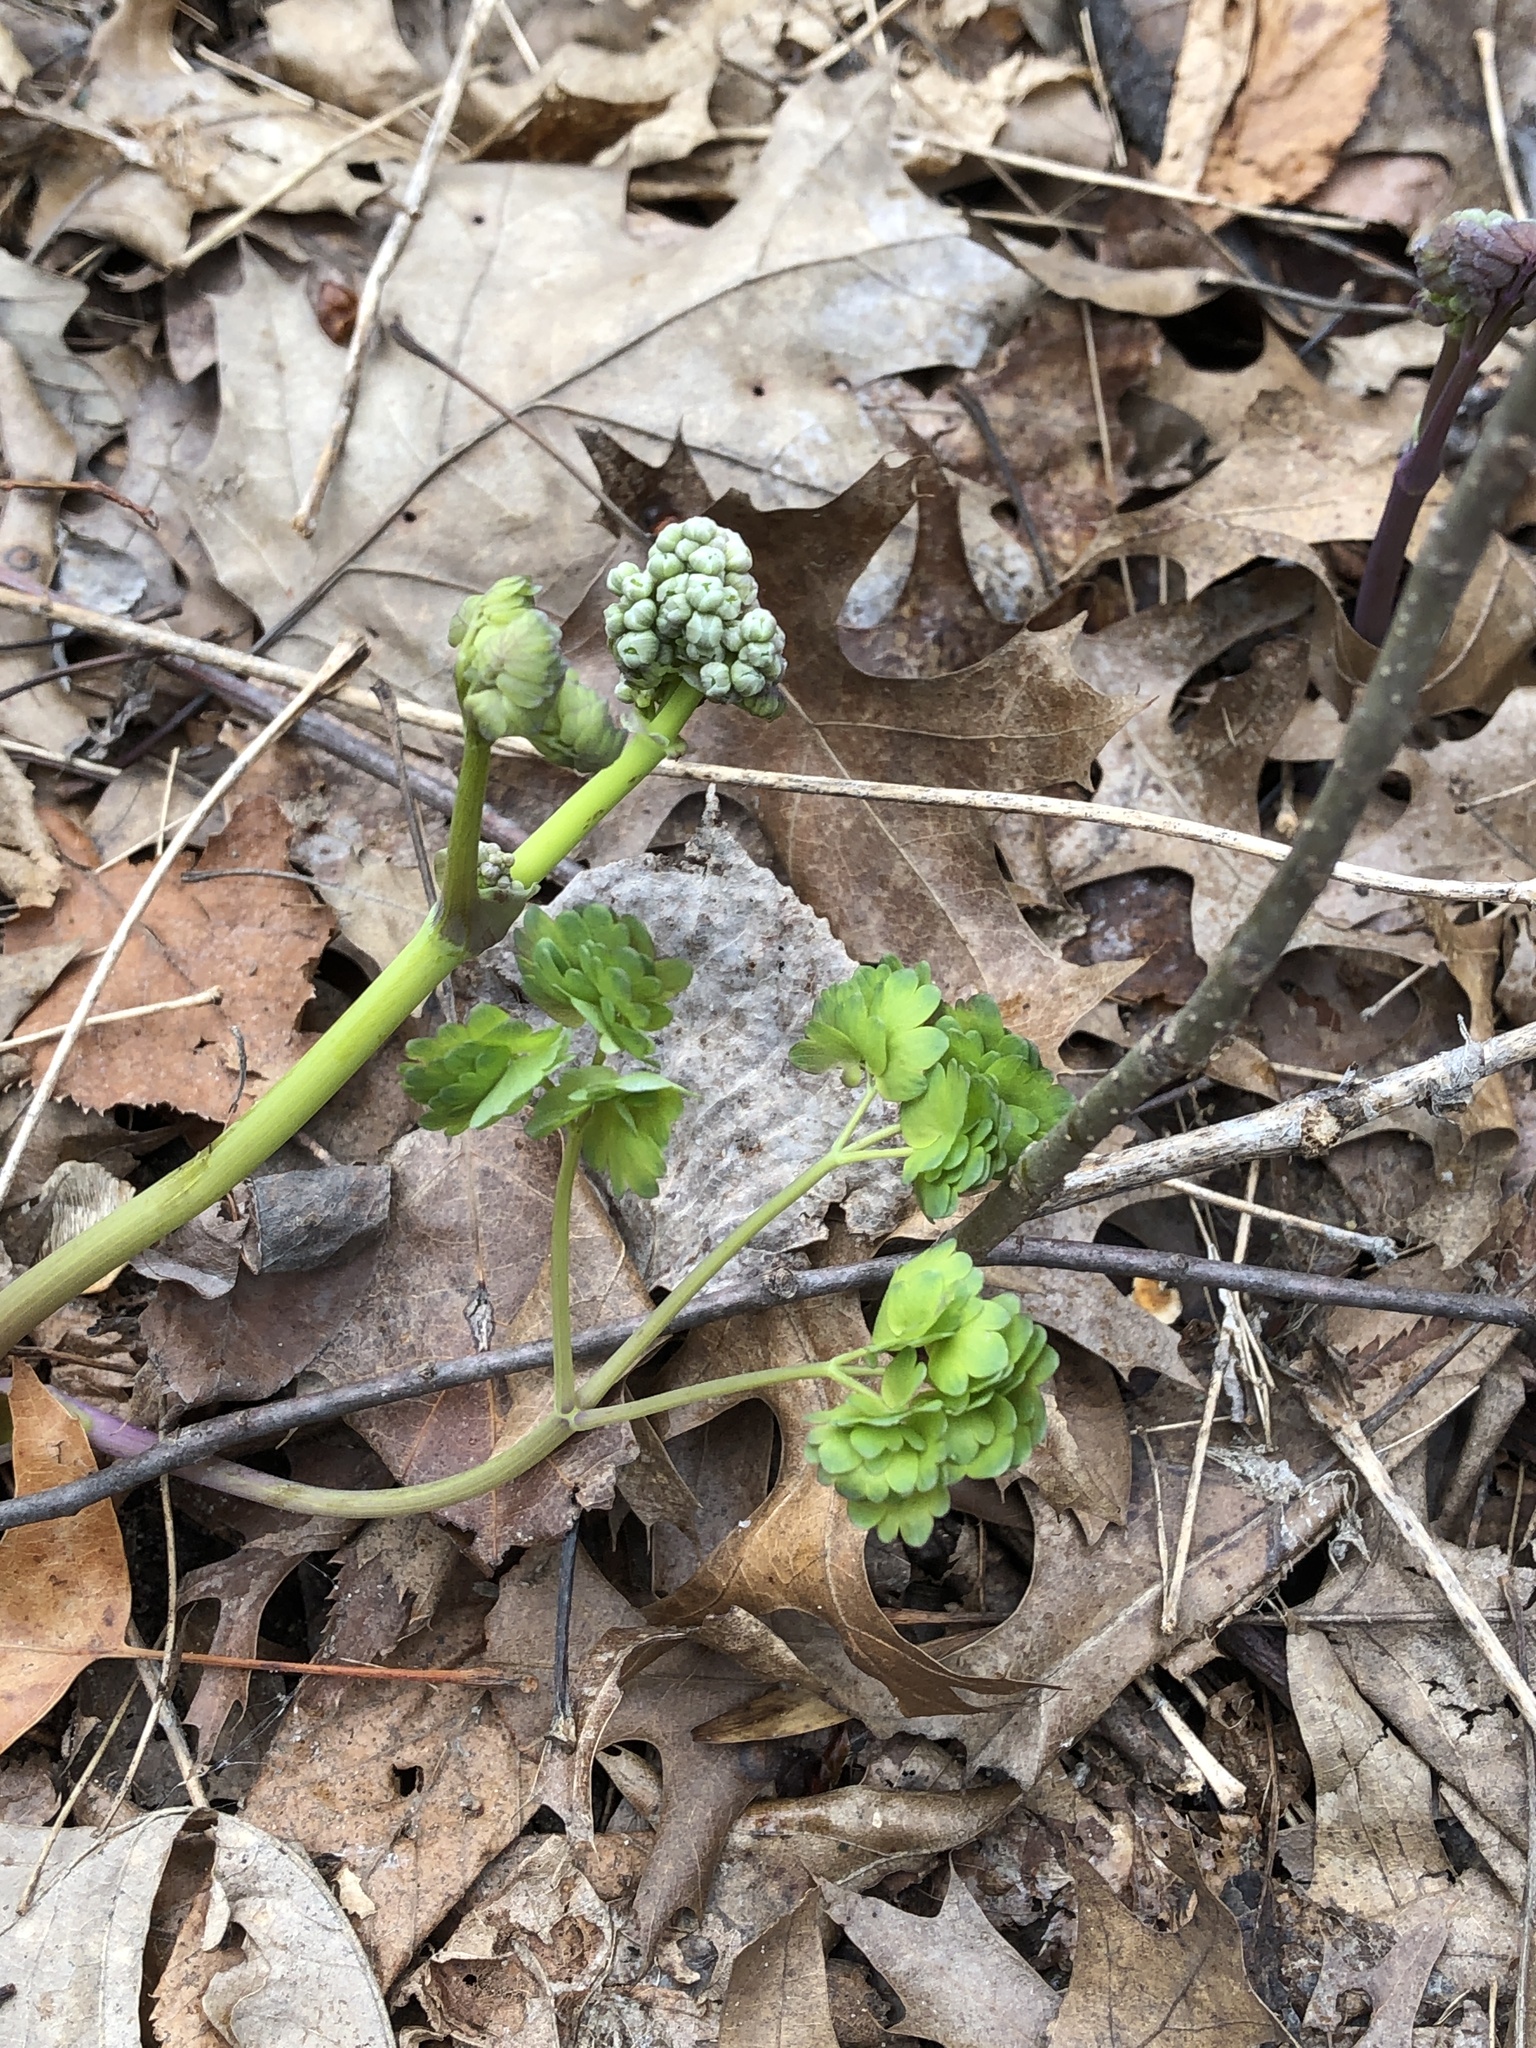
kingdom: Plantae
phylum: Tracheophyta
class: Magnoliopsida
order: Ranunculales
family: Ranunculaceae
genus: Thalictrum
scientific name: Thalictrum dioicum
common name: Early meadow-rue
